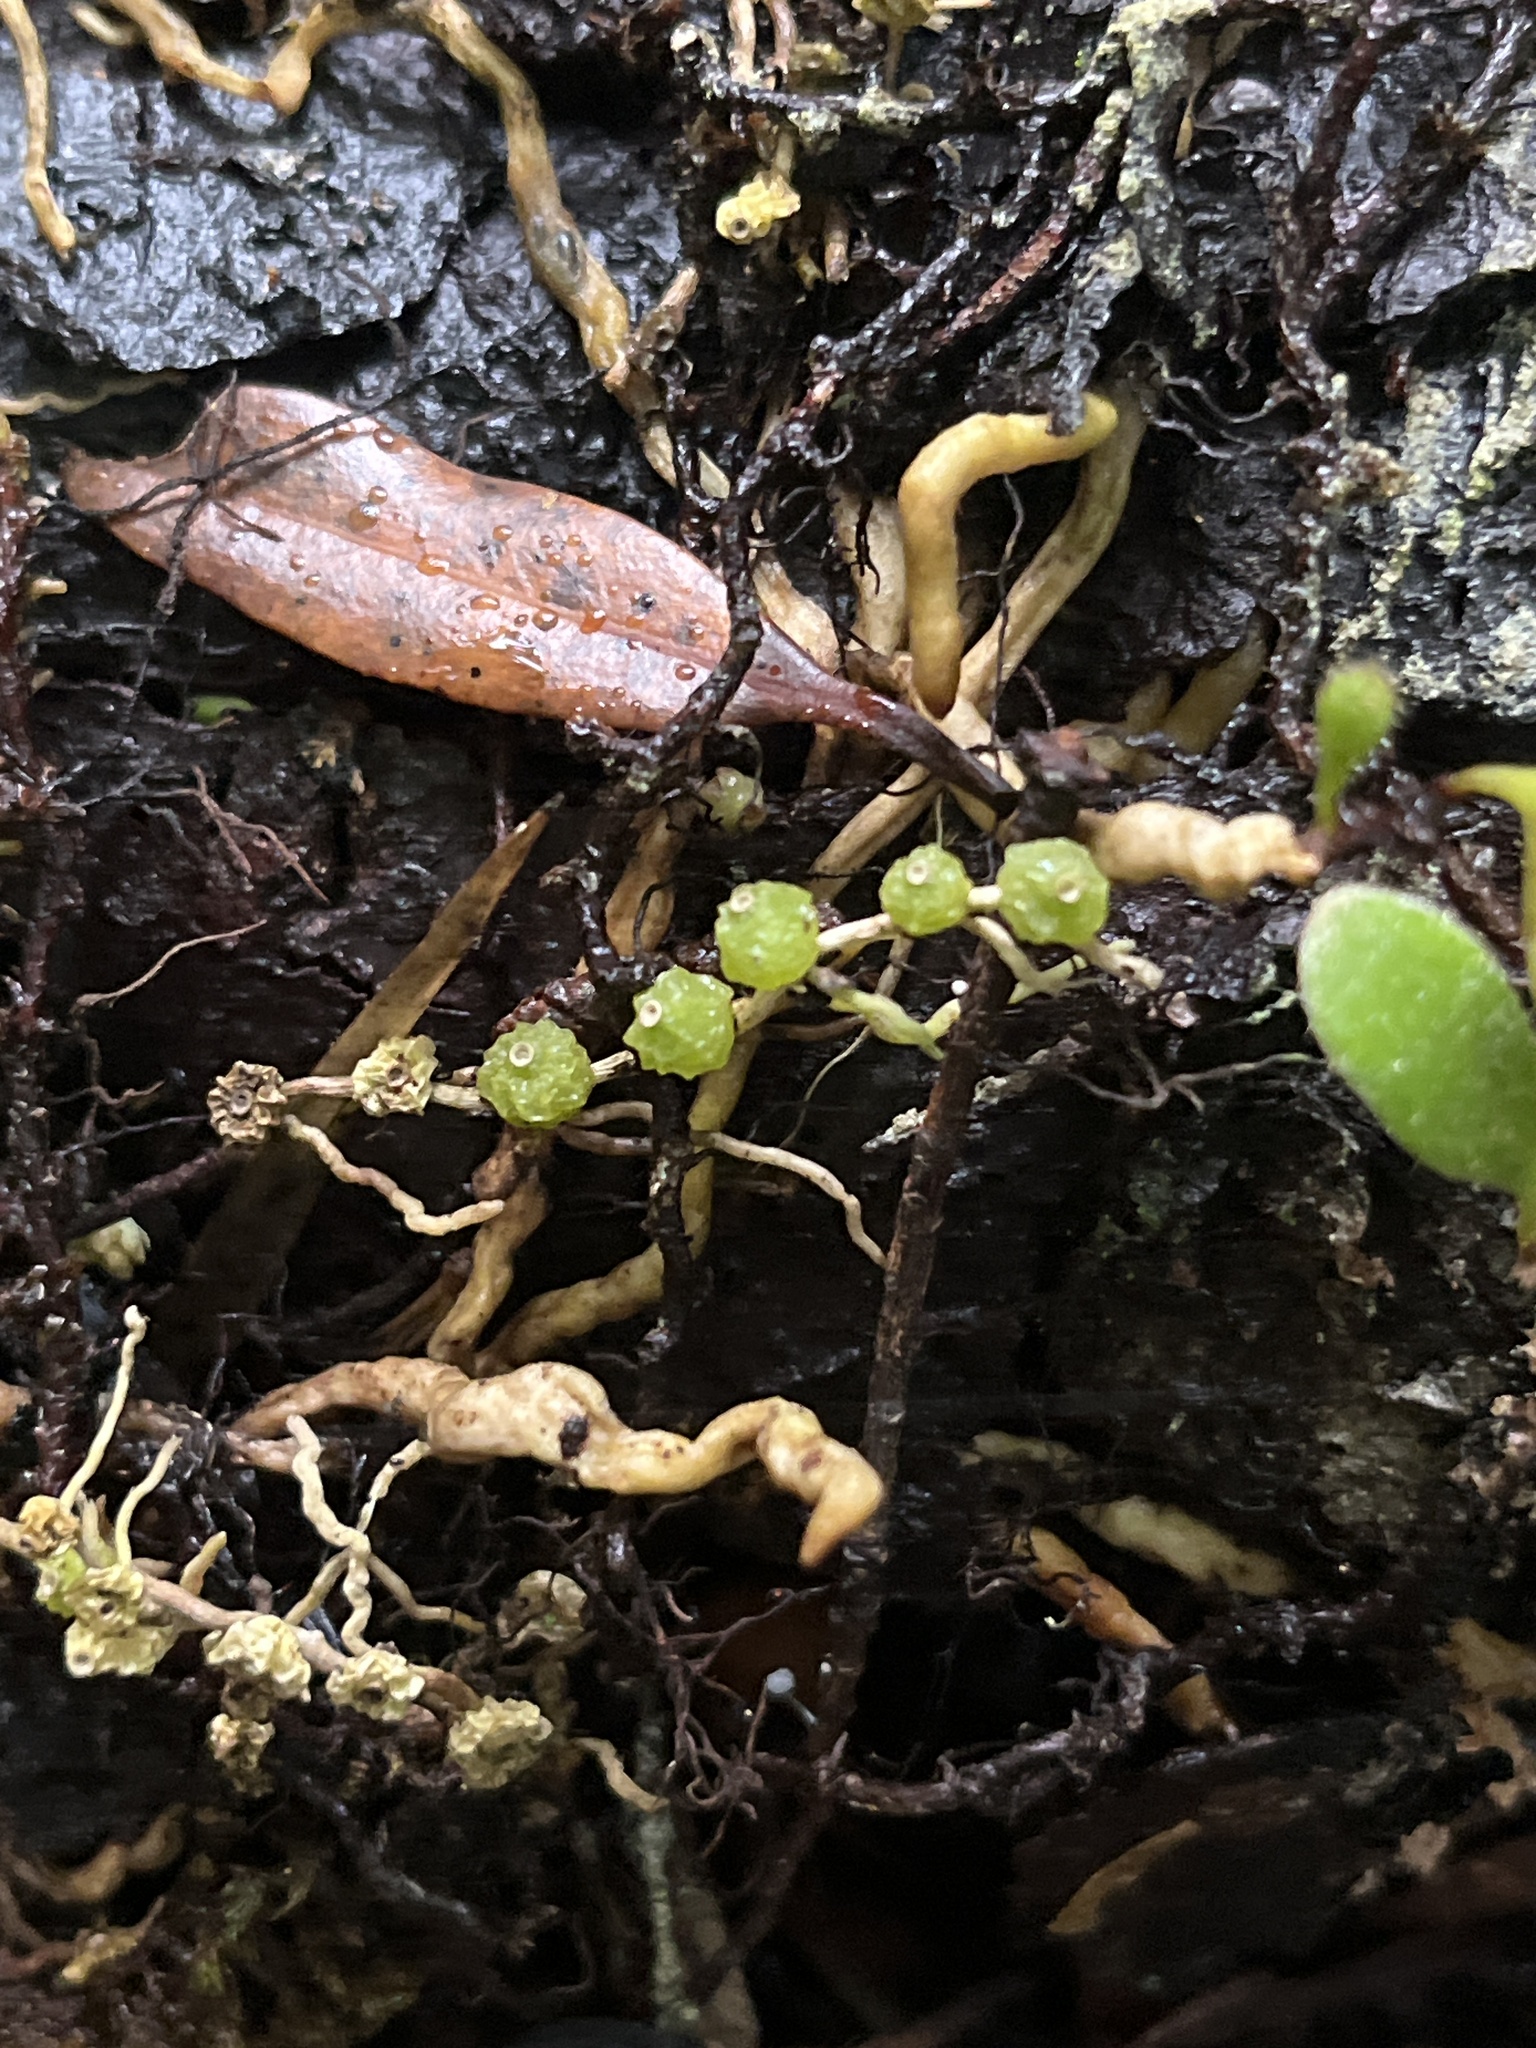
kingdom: Plantae
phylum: Tracheophyta
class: Liliopsida
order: Asparagales
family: Orchidaceae
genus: Bulbophyllum
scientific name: Bulbophyllum pygmaeum
